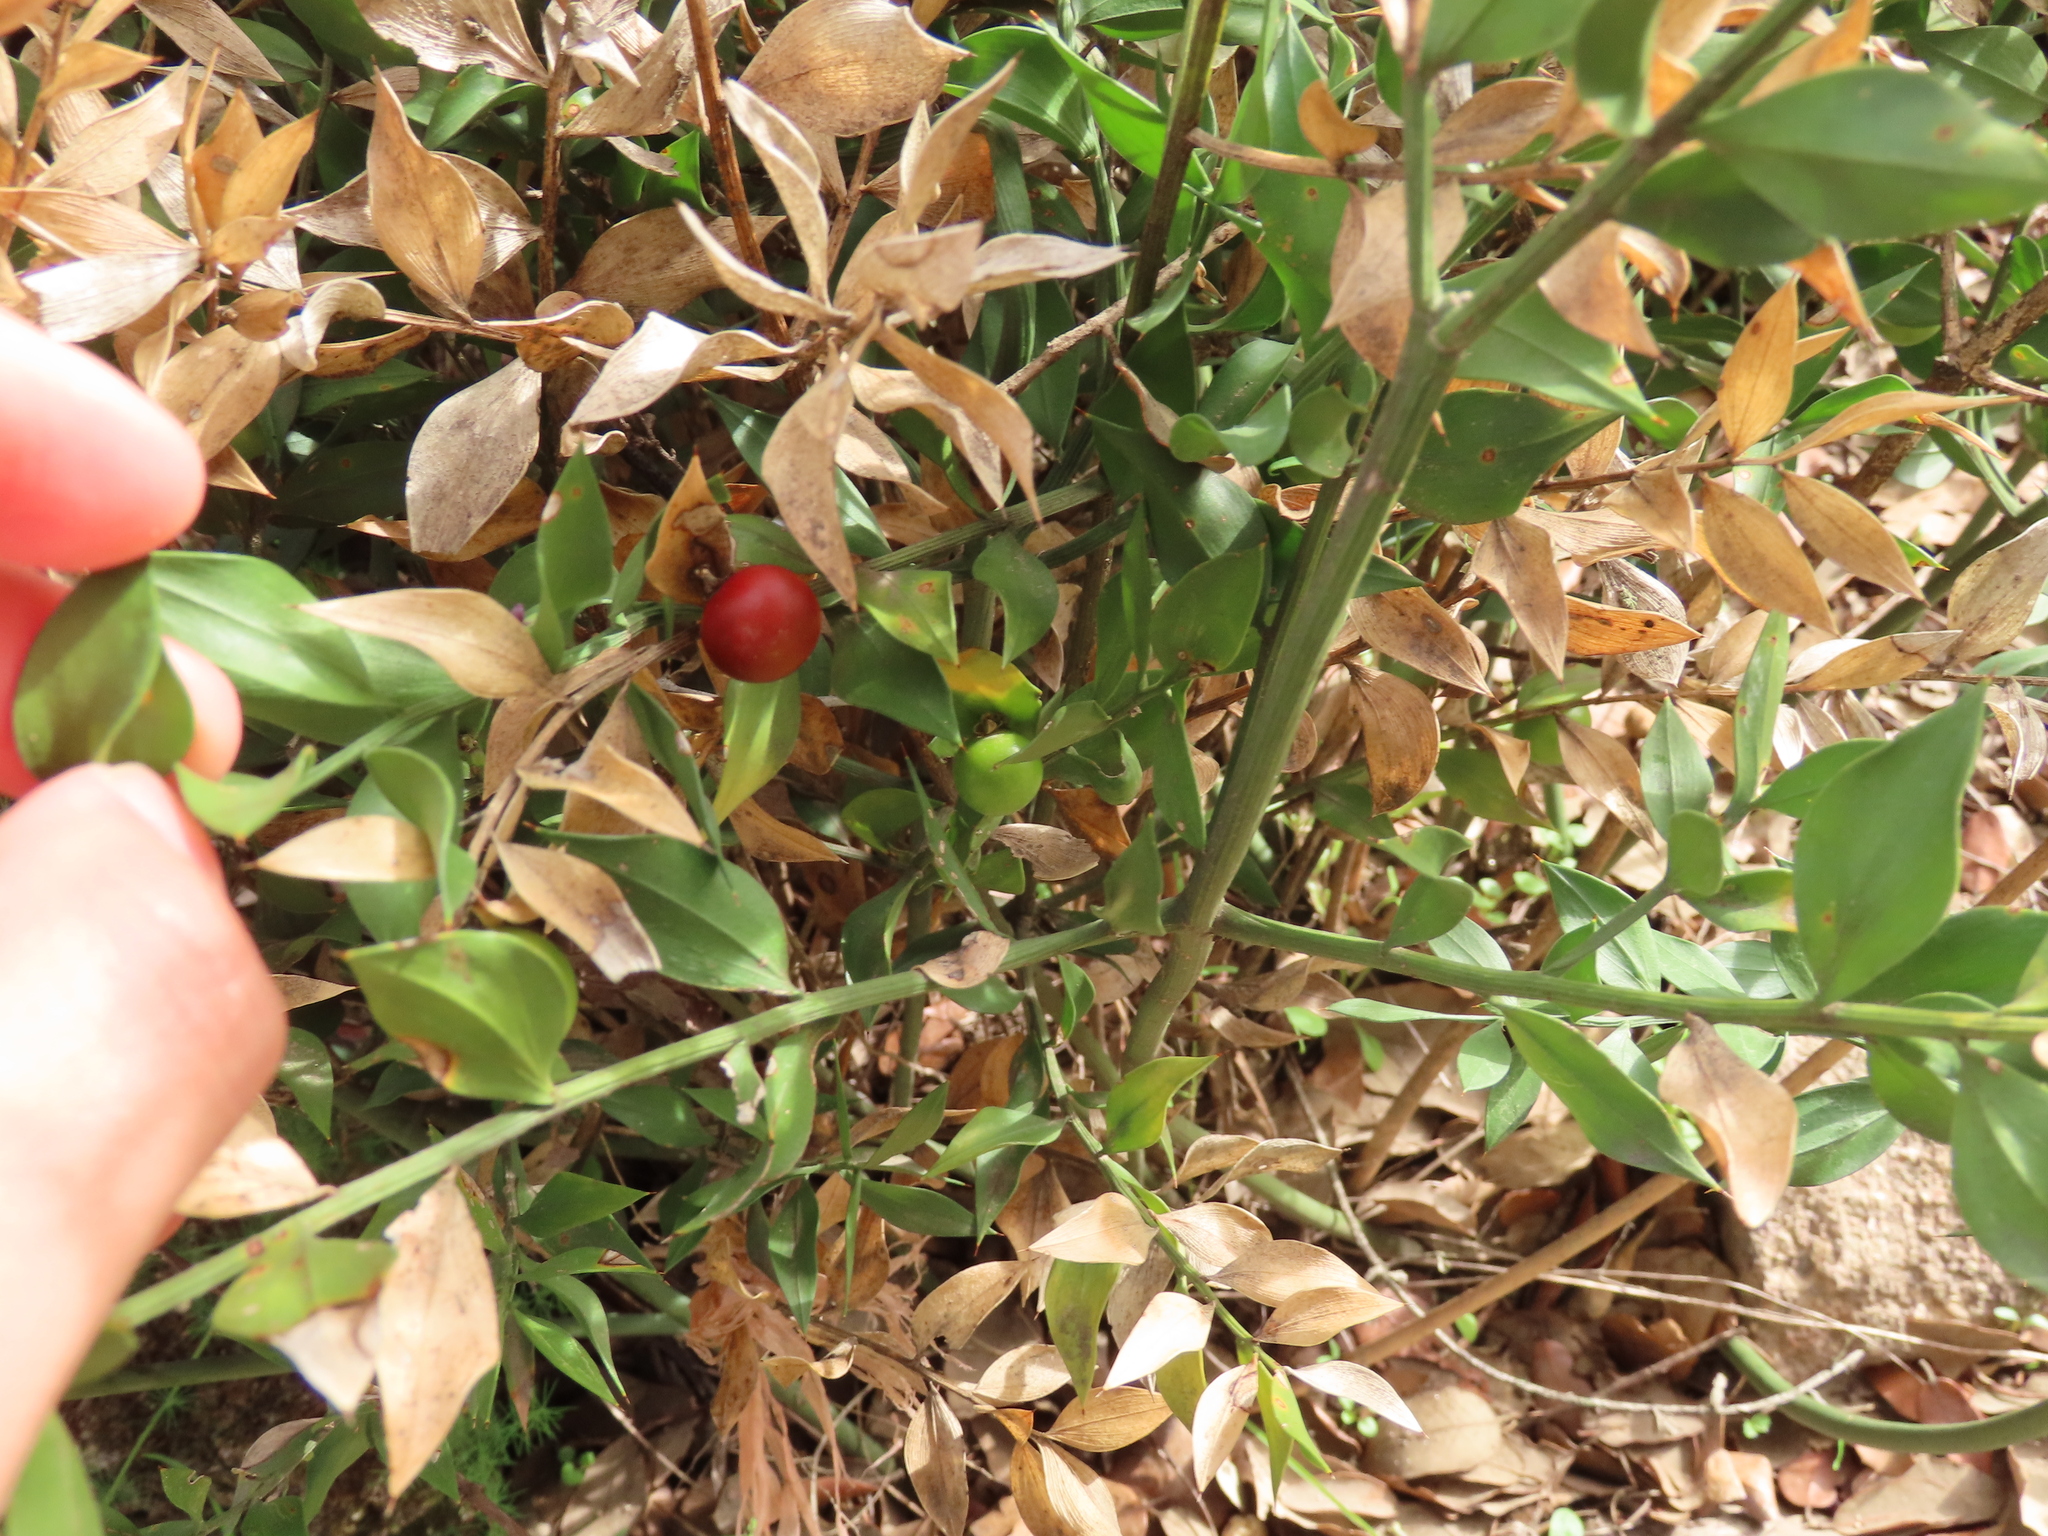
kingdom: Plantae
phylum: Tracheophyta
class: Liliopsida
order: Asparagales
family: Asparagaceae
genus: Ruscus
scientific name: Ruscus aculeatus
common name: Butcher's-broom
